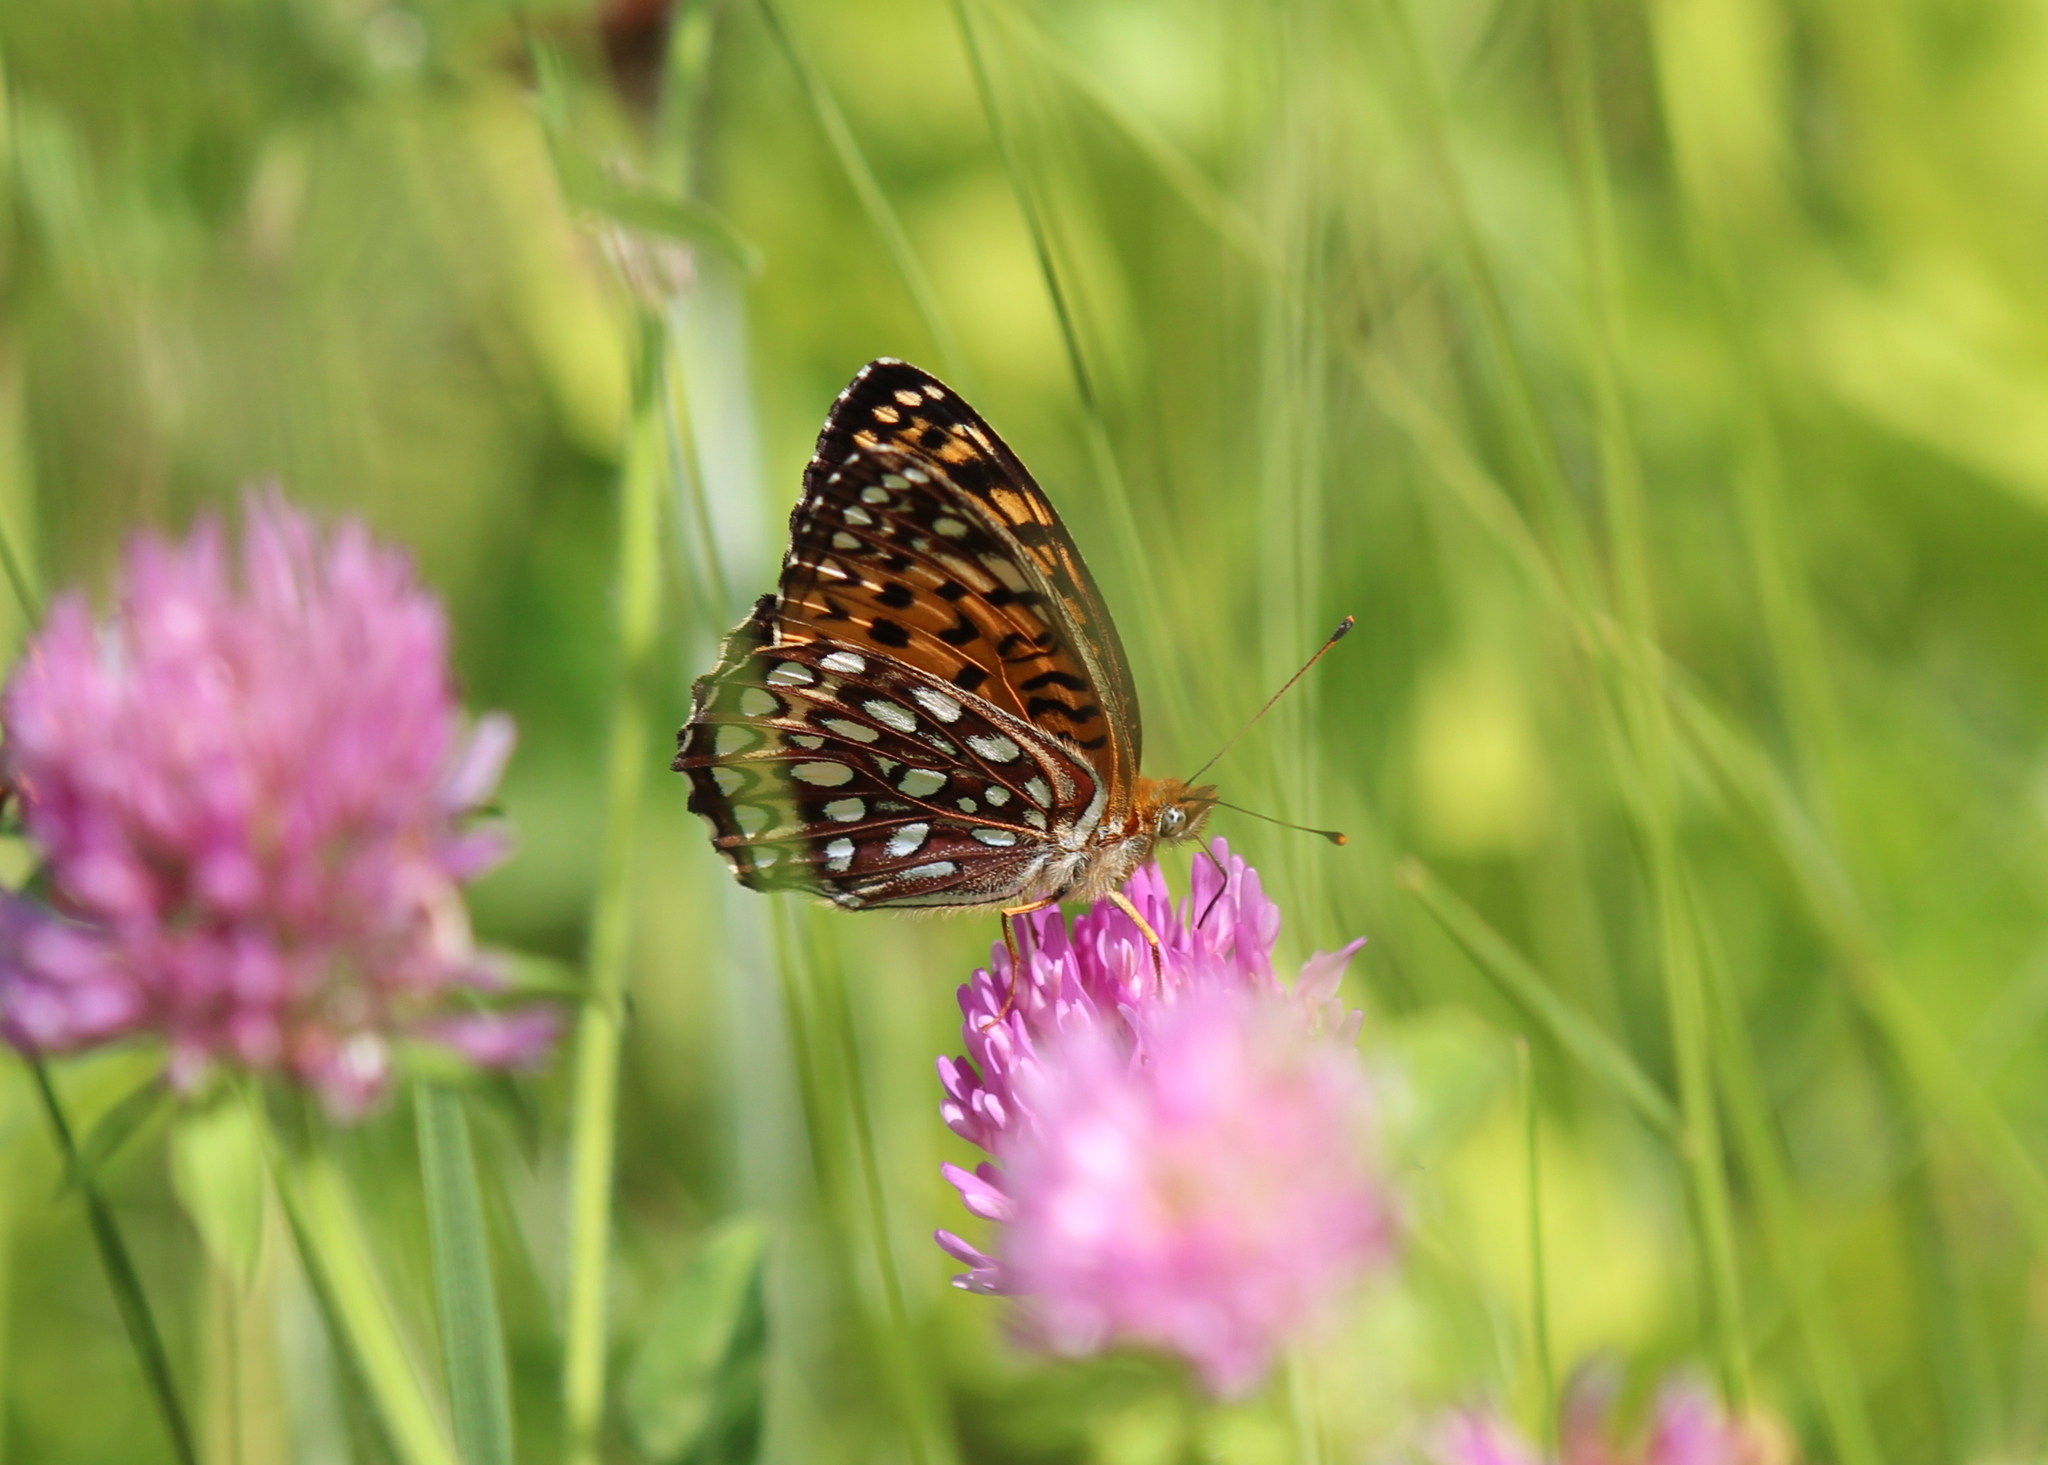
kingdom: Animalia
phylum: Arthropoda
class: Insecta
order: Lepidoptera
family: Nymphalidae
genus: Speyeria
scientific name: Speyeria atlantis
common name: Atlantis fritillary
